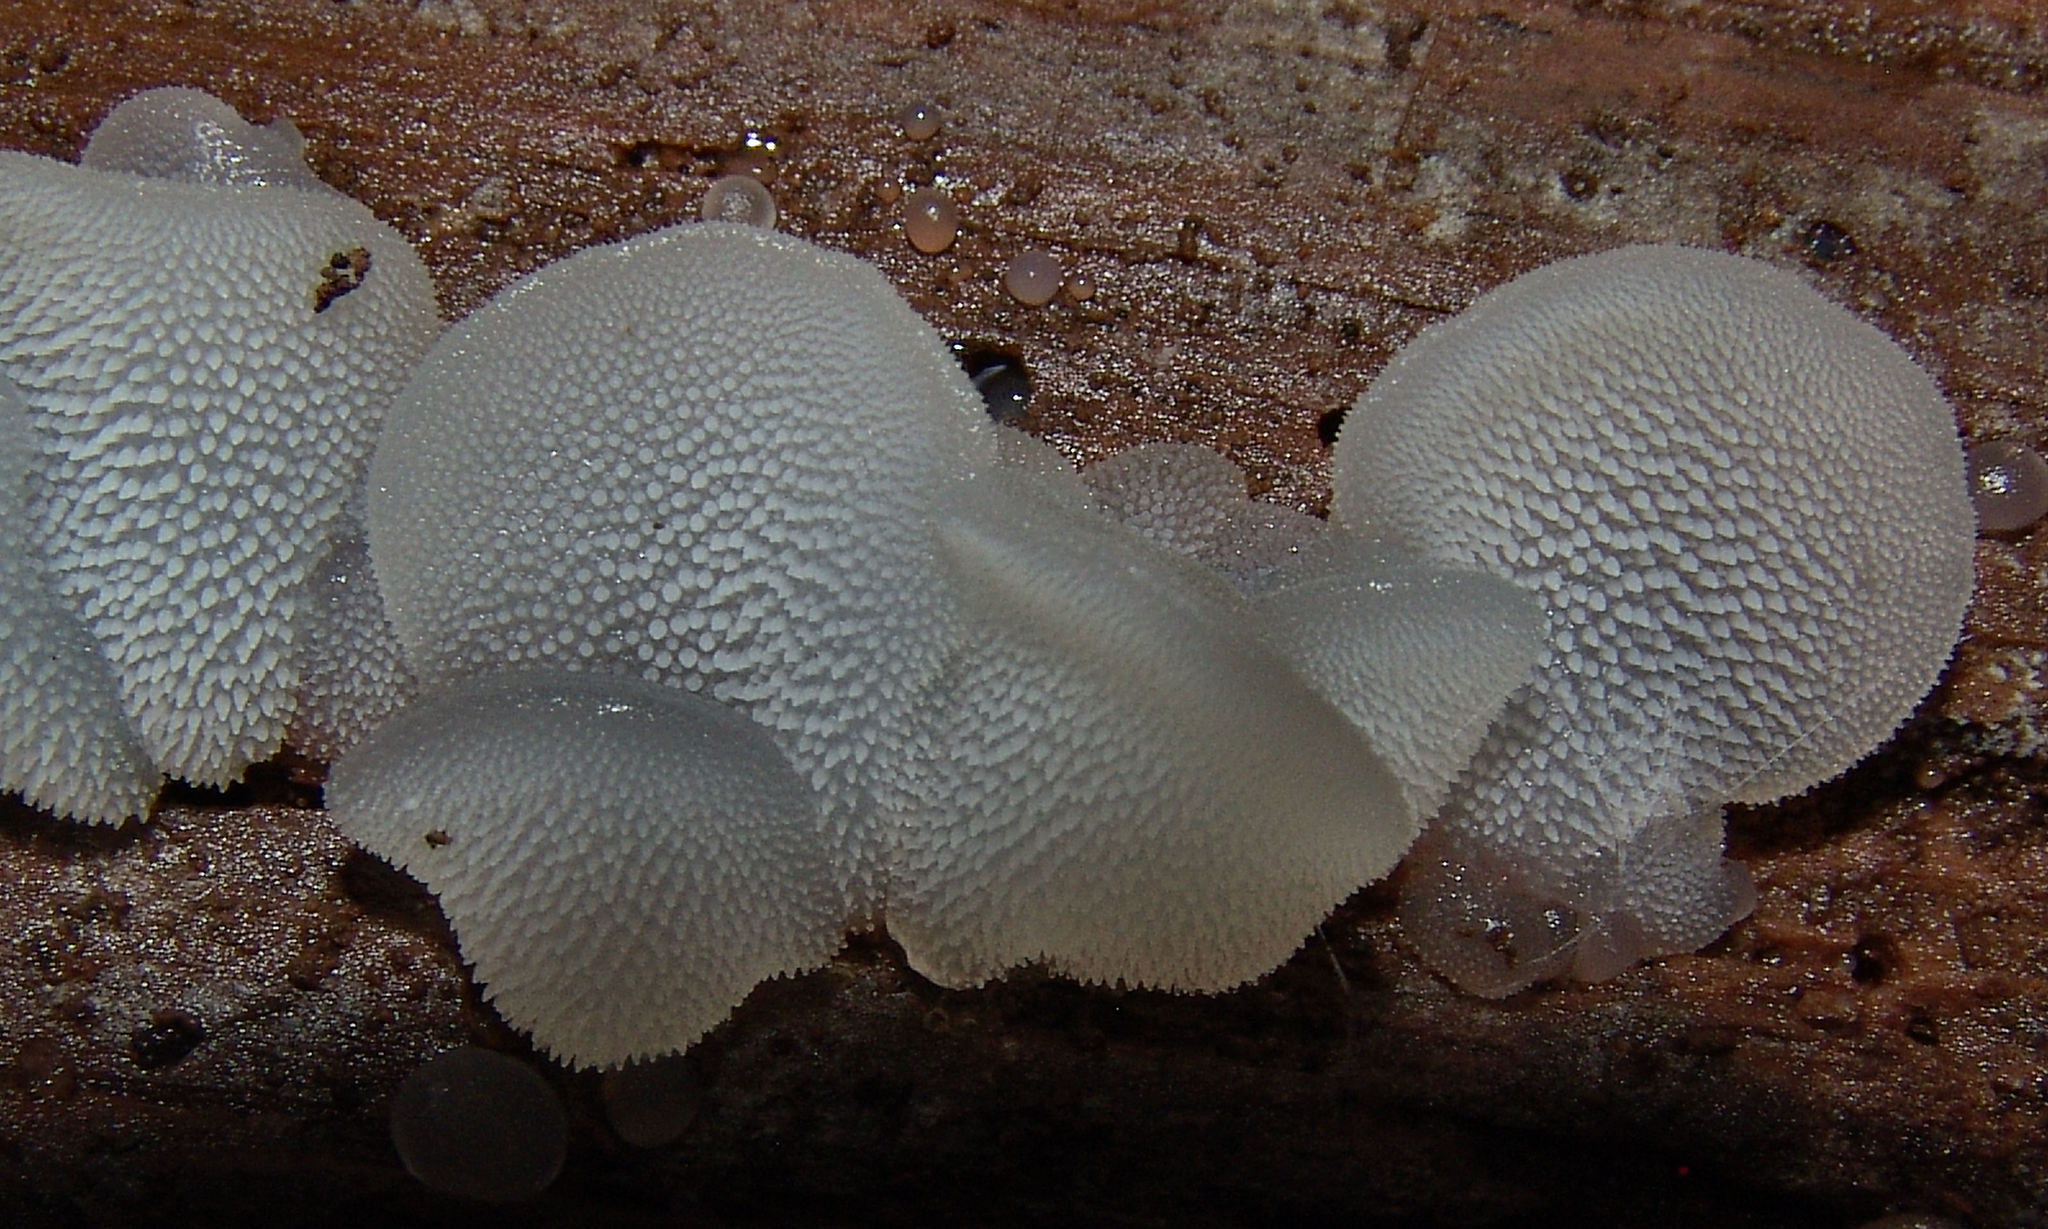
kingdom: Fungi
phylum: Basidiomycota
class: Agaricomycetes
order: Auriculariales
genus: Pseudohydnum
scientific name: Pseudohydnum gelatinosum
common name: Jelly tongue
